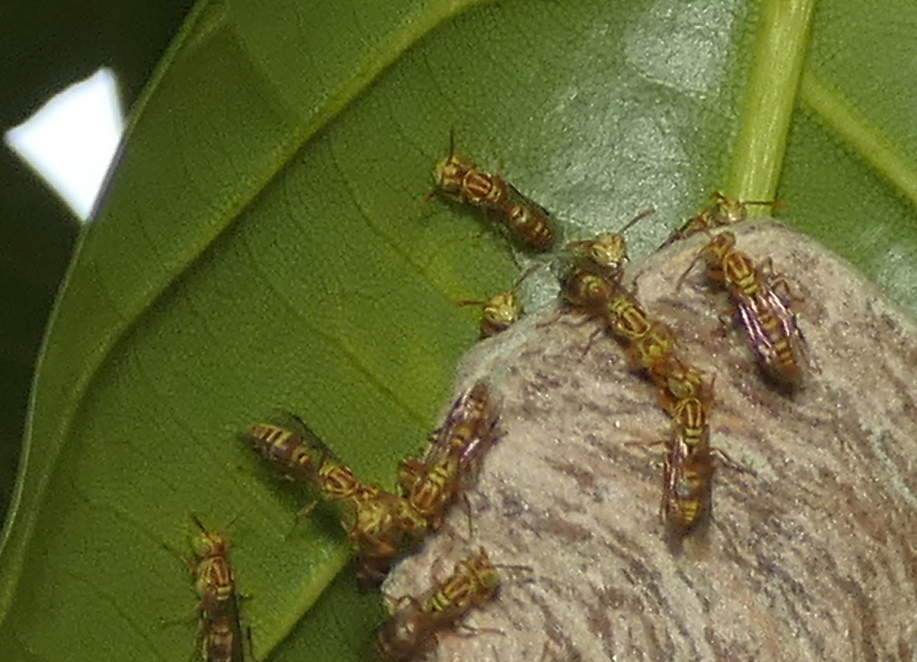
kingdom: Animalia
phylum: Arthropoda
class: Insecta
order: Hymenoptera
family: Vespidae
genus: Protopolybia
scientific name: Protopolybia potiguara
